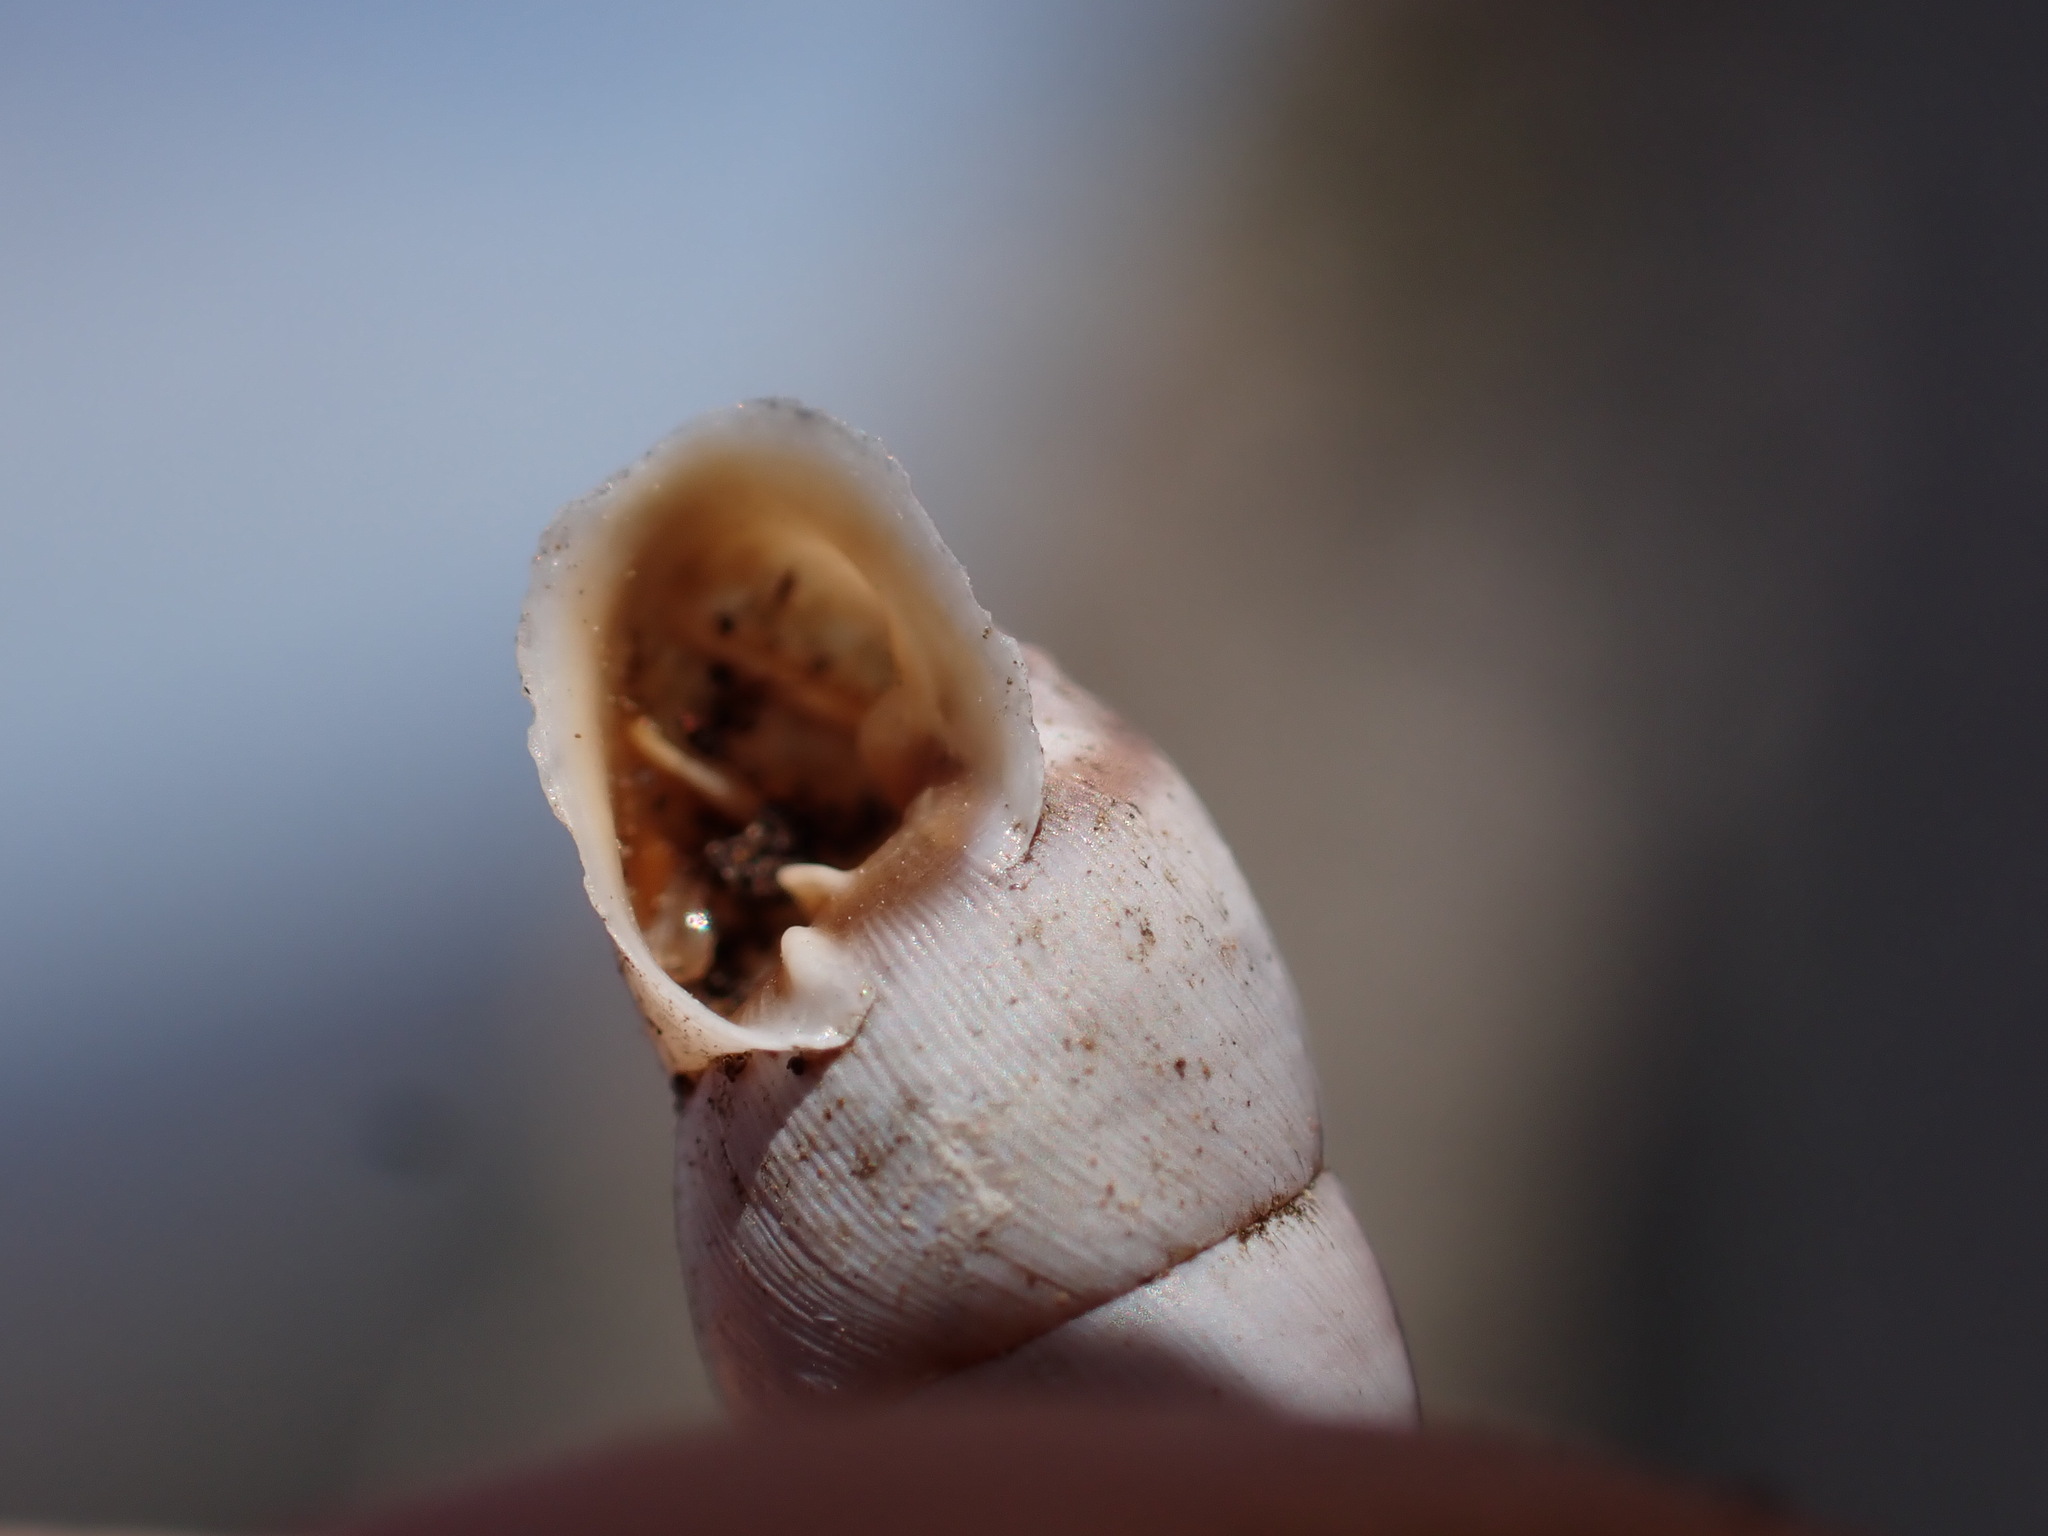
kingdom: Animalia
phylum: Mollusca
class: Gastropoda
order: Stylommatophora
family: Chondrinidae
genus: Solatopupa
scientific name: Solatopupa similis
